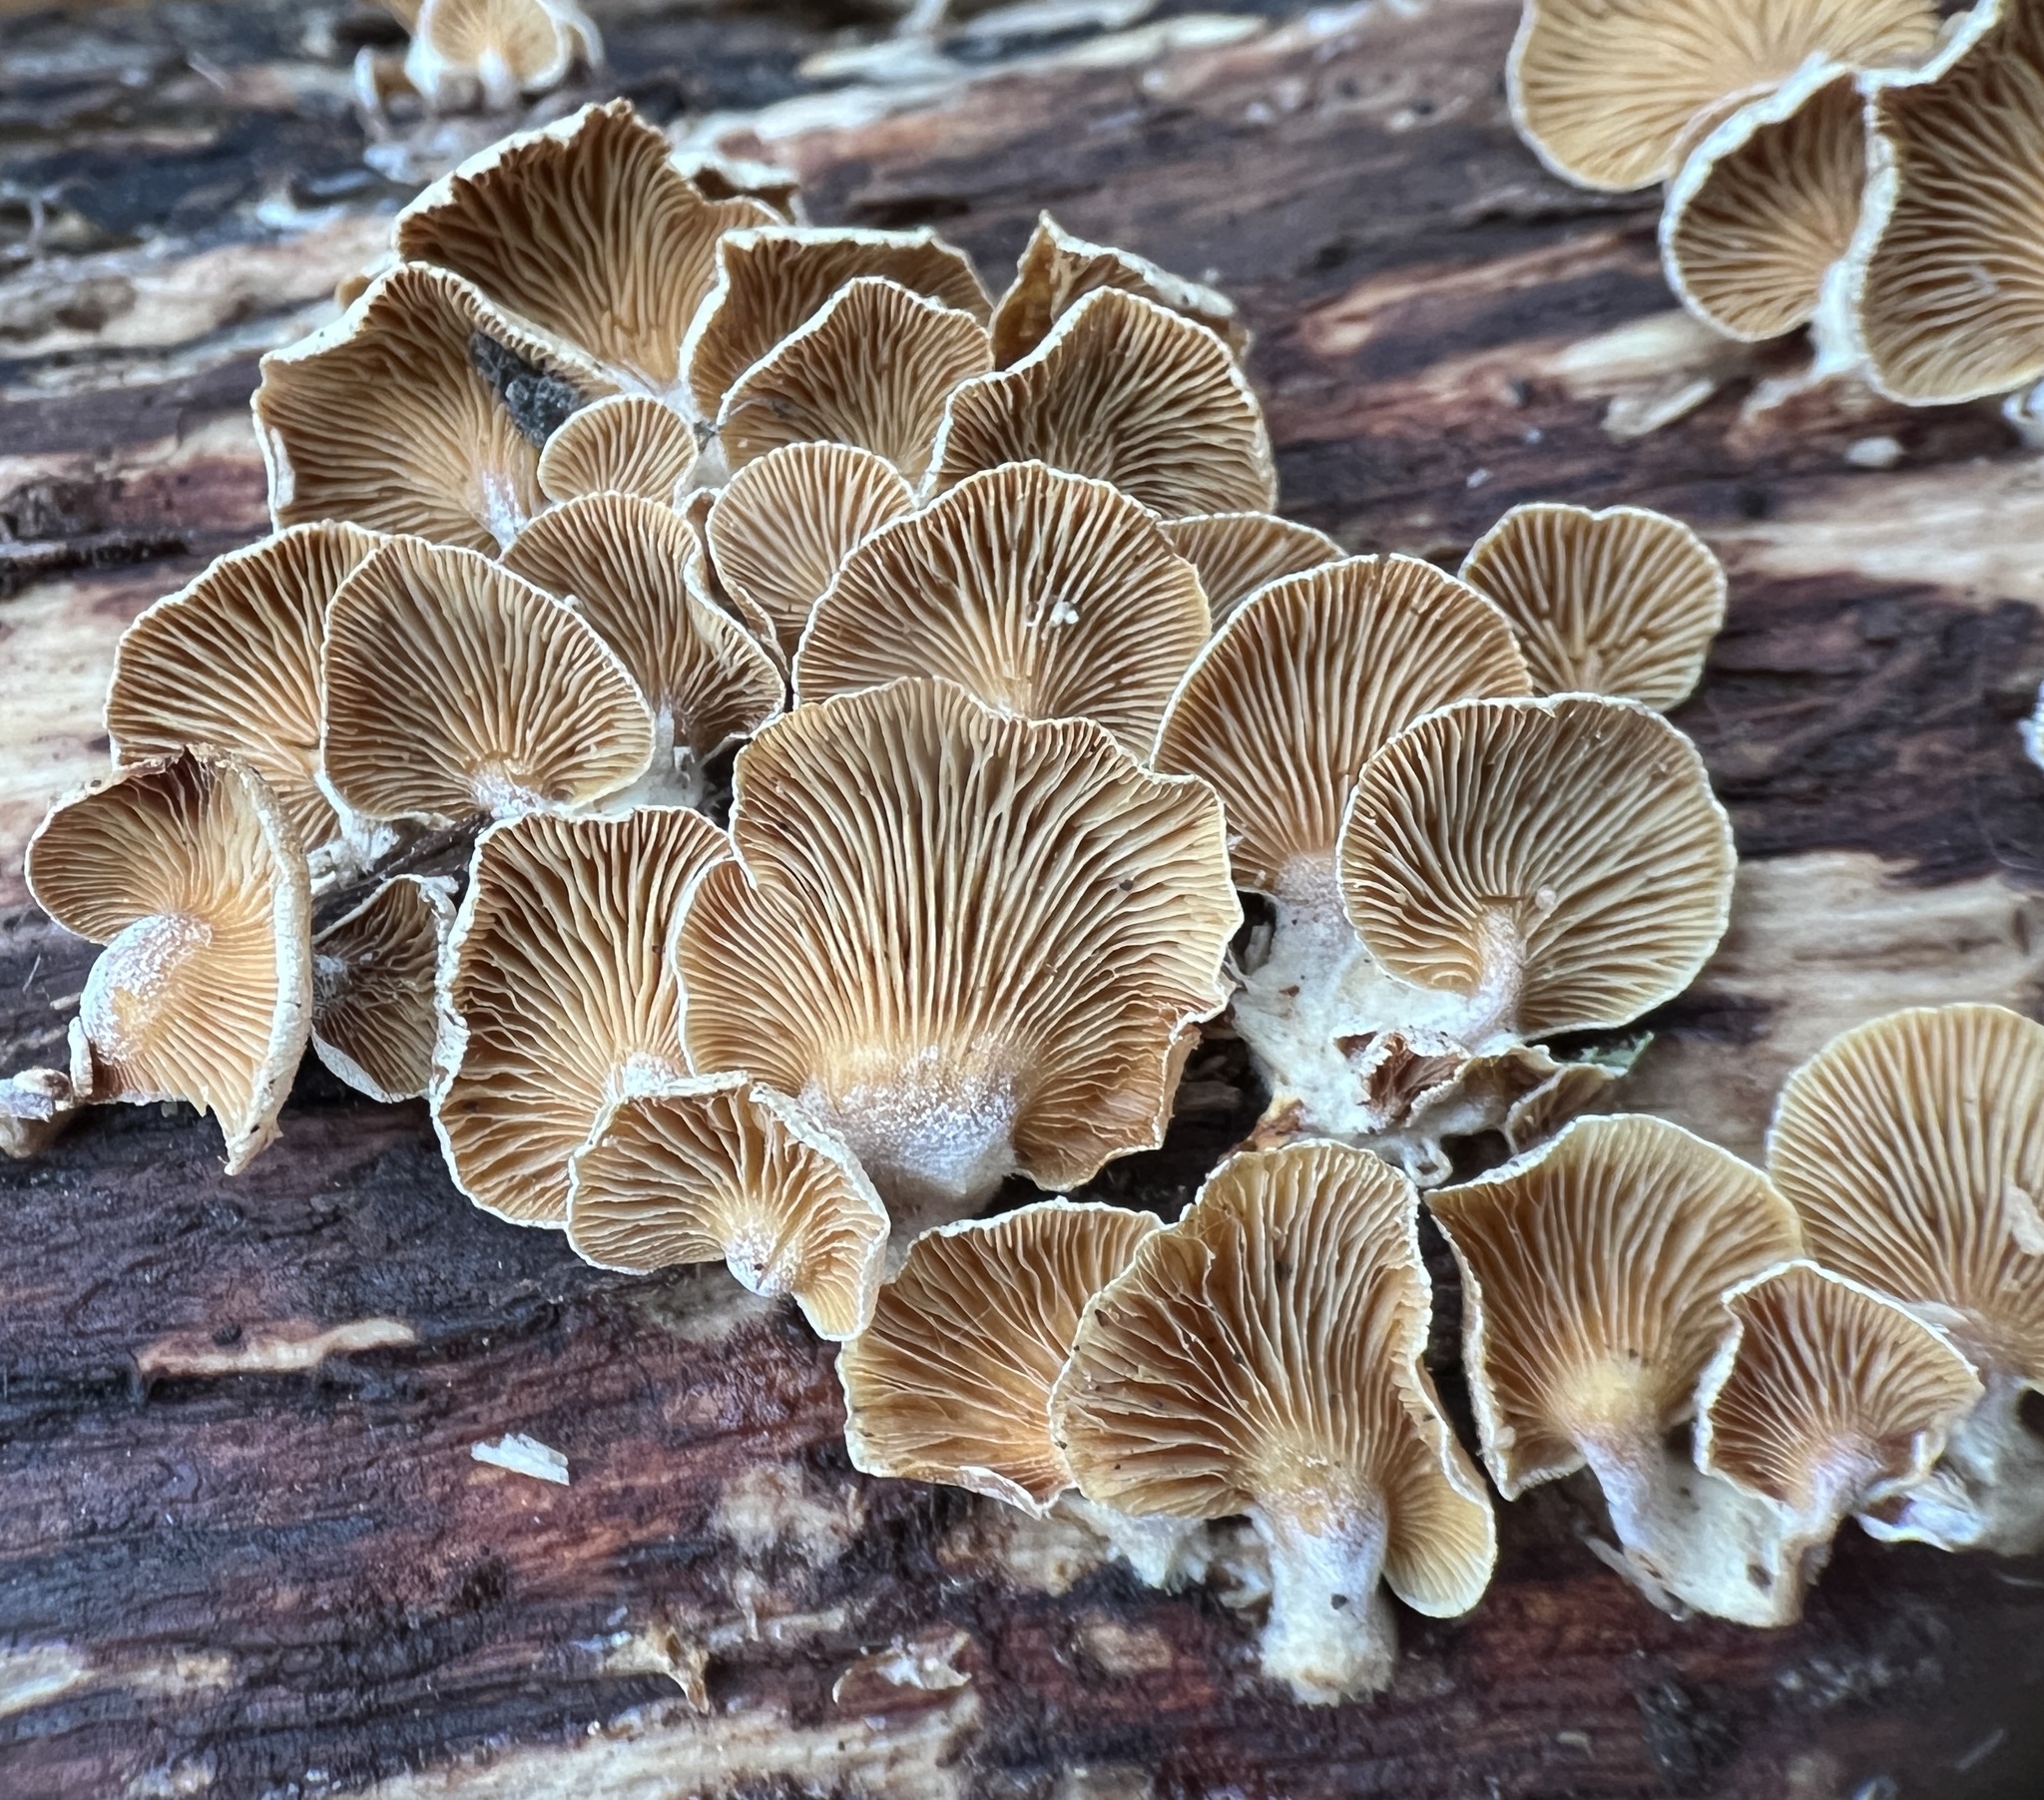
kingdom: Fungi
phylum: Basidiomycota
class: Agaricomycetes
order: Agaricales
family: Mycenaceae
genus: Panellus
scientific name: Panellus stipticus
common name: Bitter oysterling
